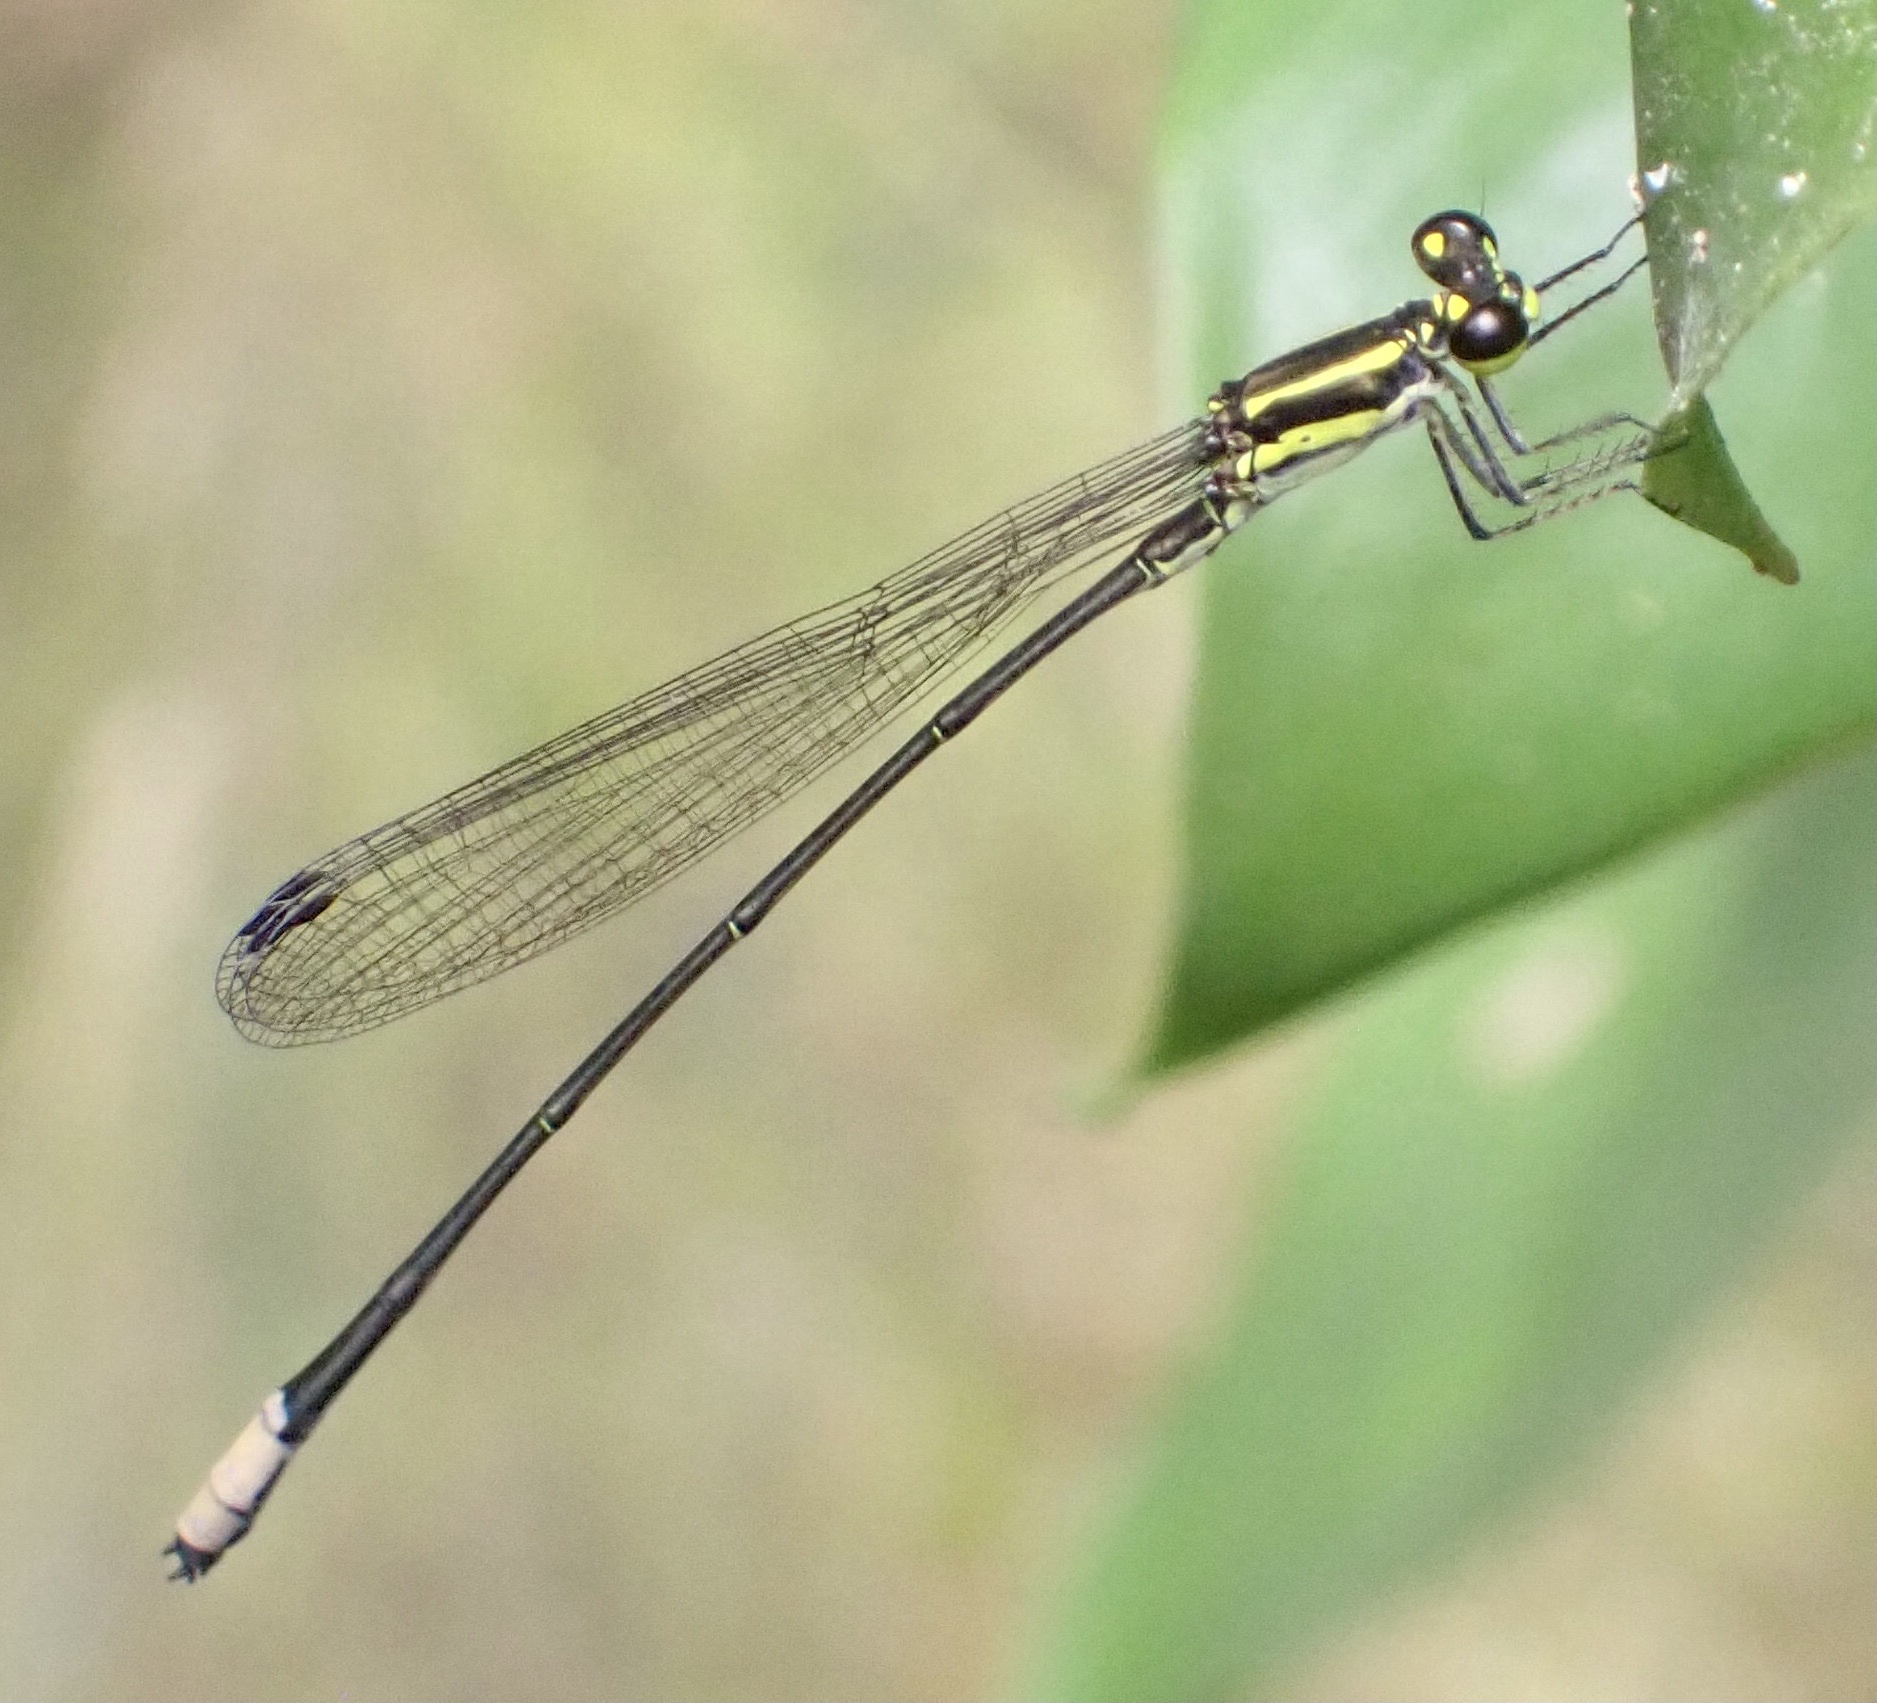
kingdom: Animalia
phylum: Arthropoda
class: Insecta
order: Odonata
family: Coenagrionidae
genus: Pseudagrion
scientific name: Pseudagrion melanicterum
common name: Farmbush sprite
